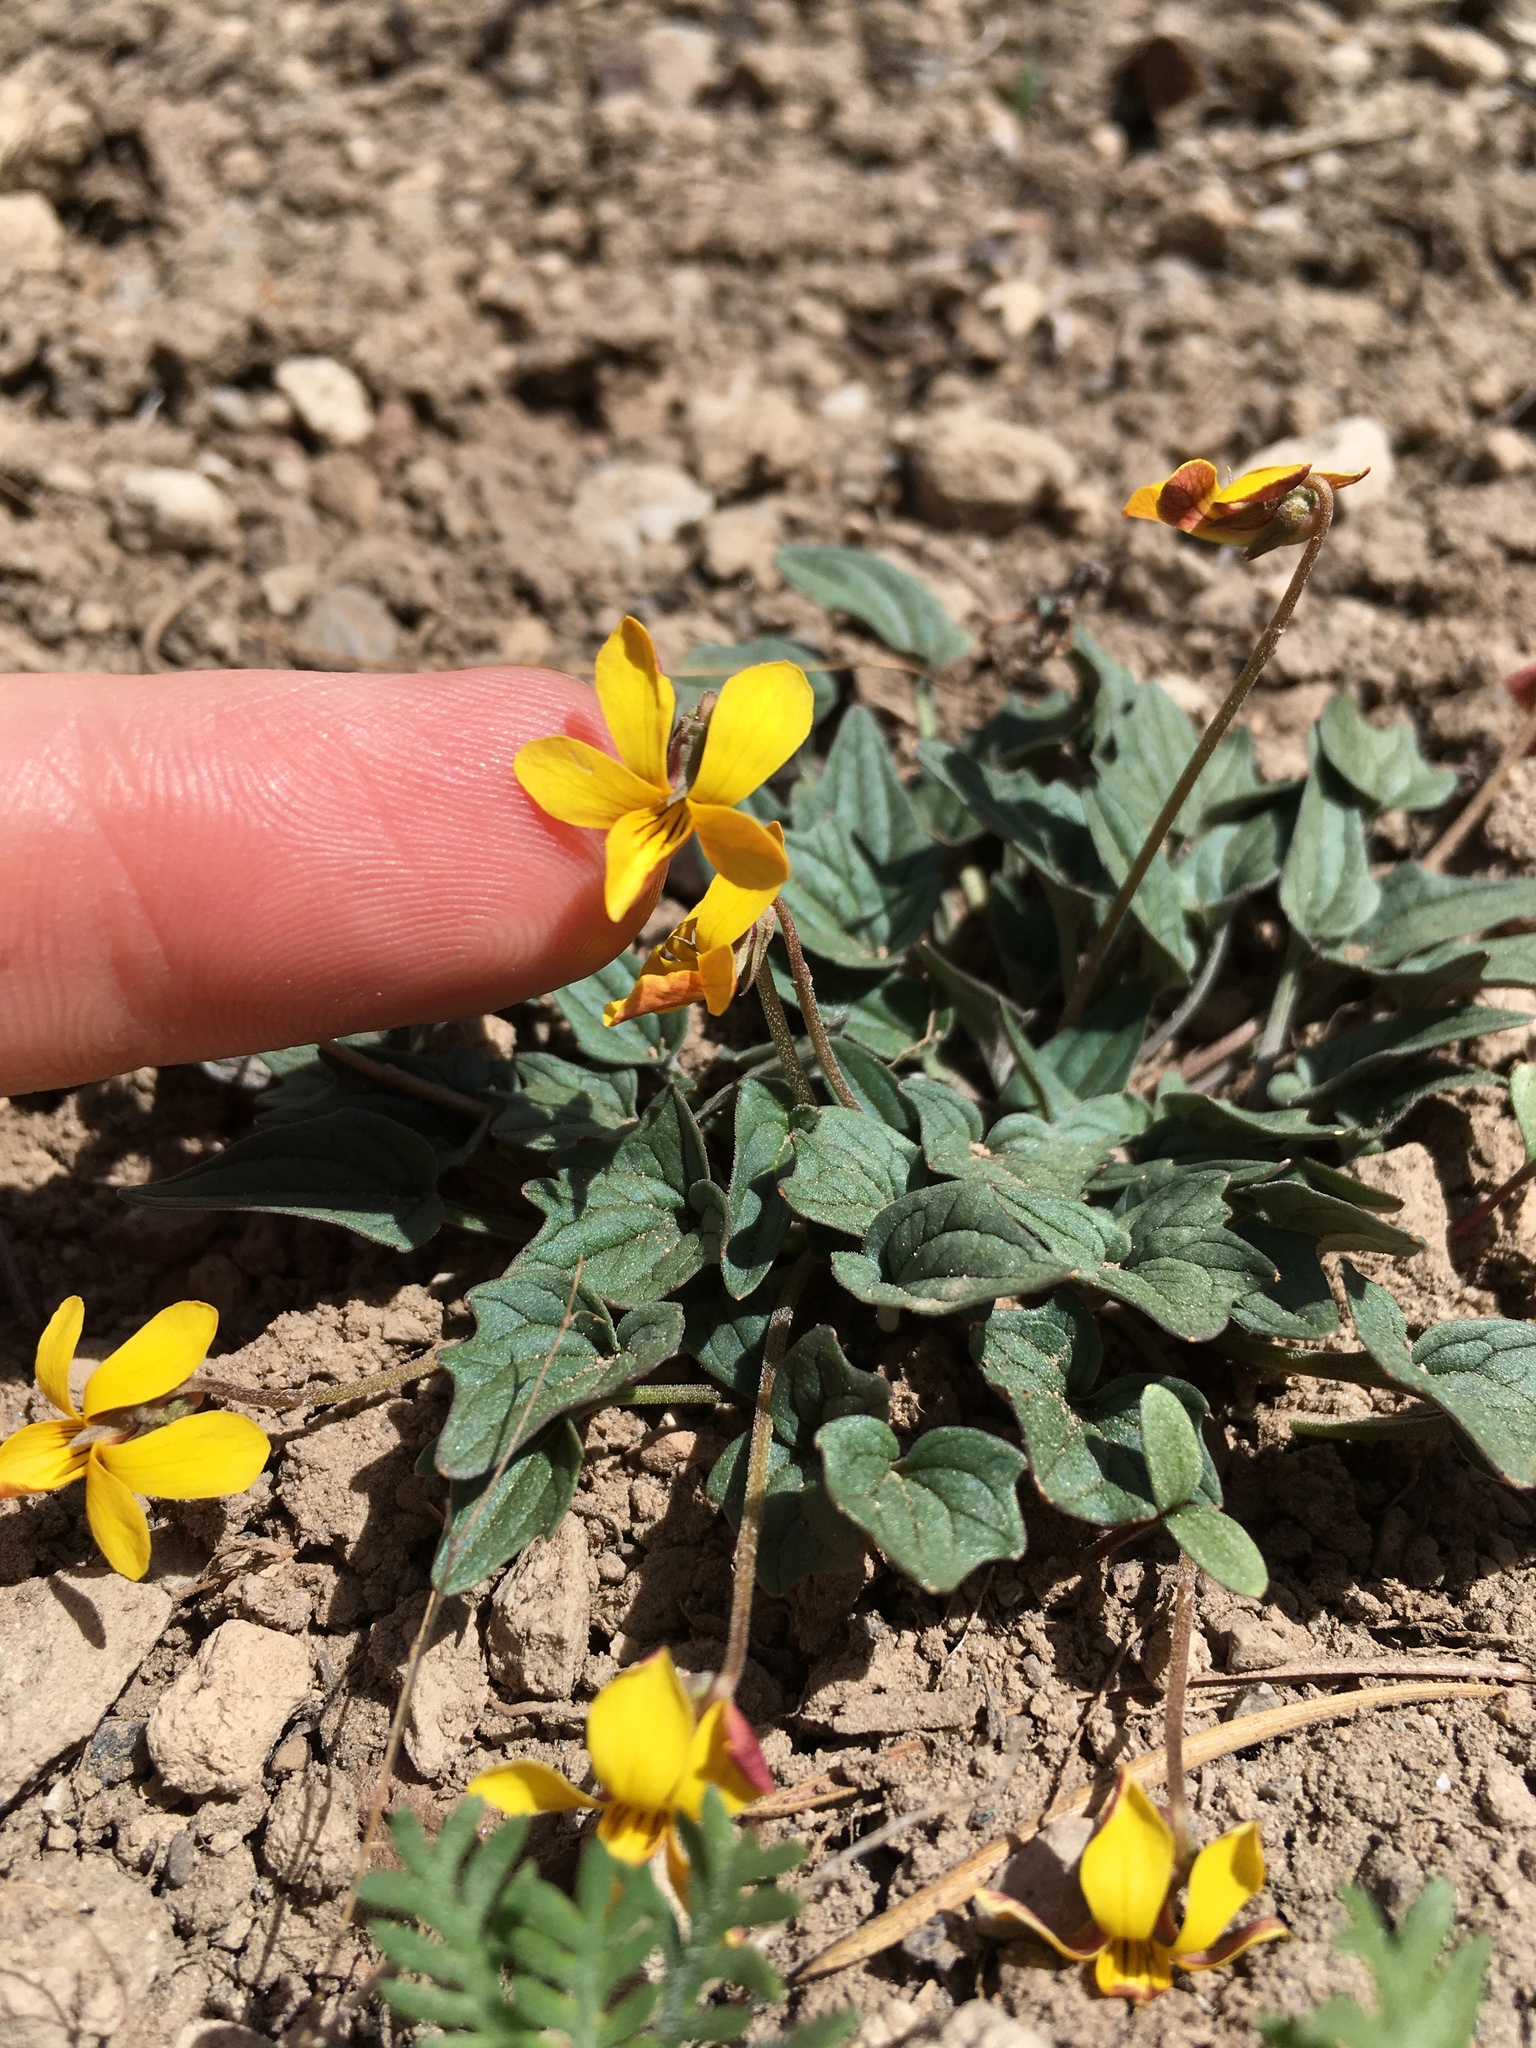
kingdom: Plantae
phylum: Tracheophyta
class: Magnoliopsida
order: Malpighiales
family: Violaceae
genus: Viola
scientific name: Viola purpurea
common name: Pine violet
